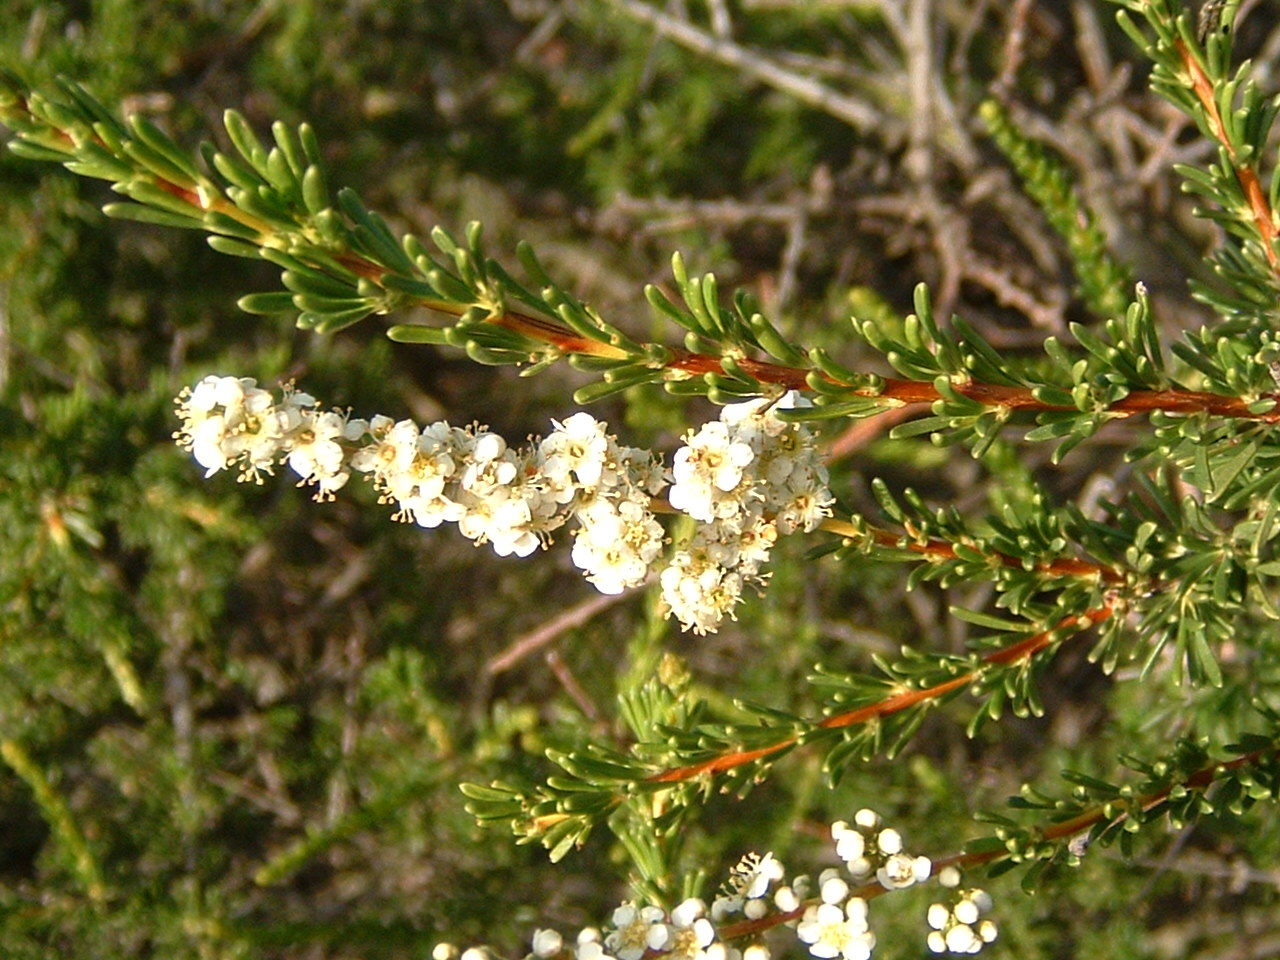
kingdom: Plantae
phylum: Tracheophyta
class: Magnoliopsida
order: Rosales
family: Rosaceae
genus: Adenostoma
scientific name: Adenostoma fasciculatum
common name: Chamise
